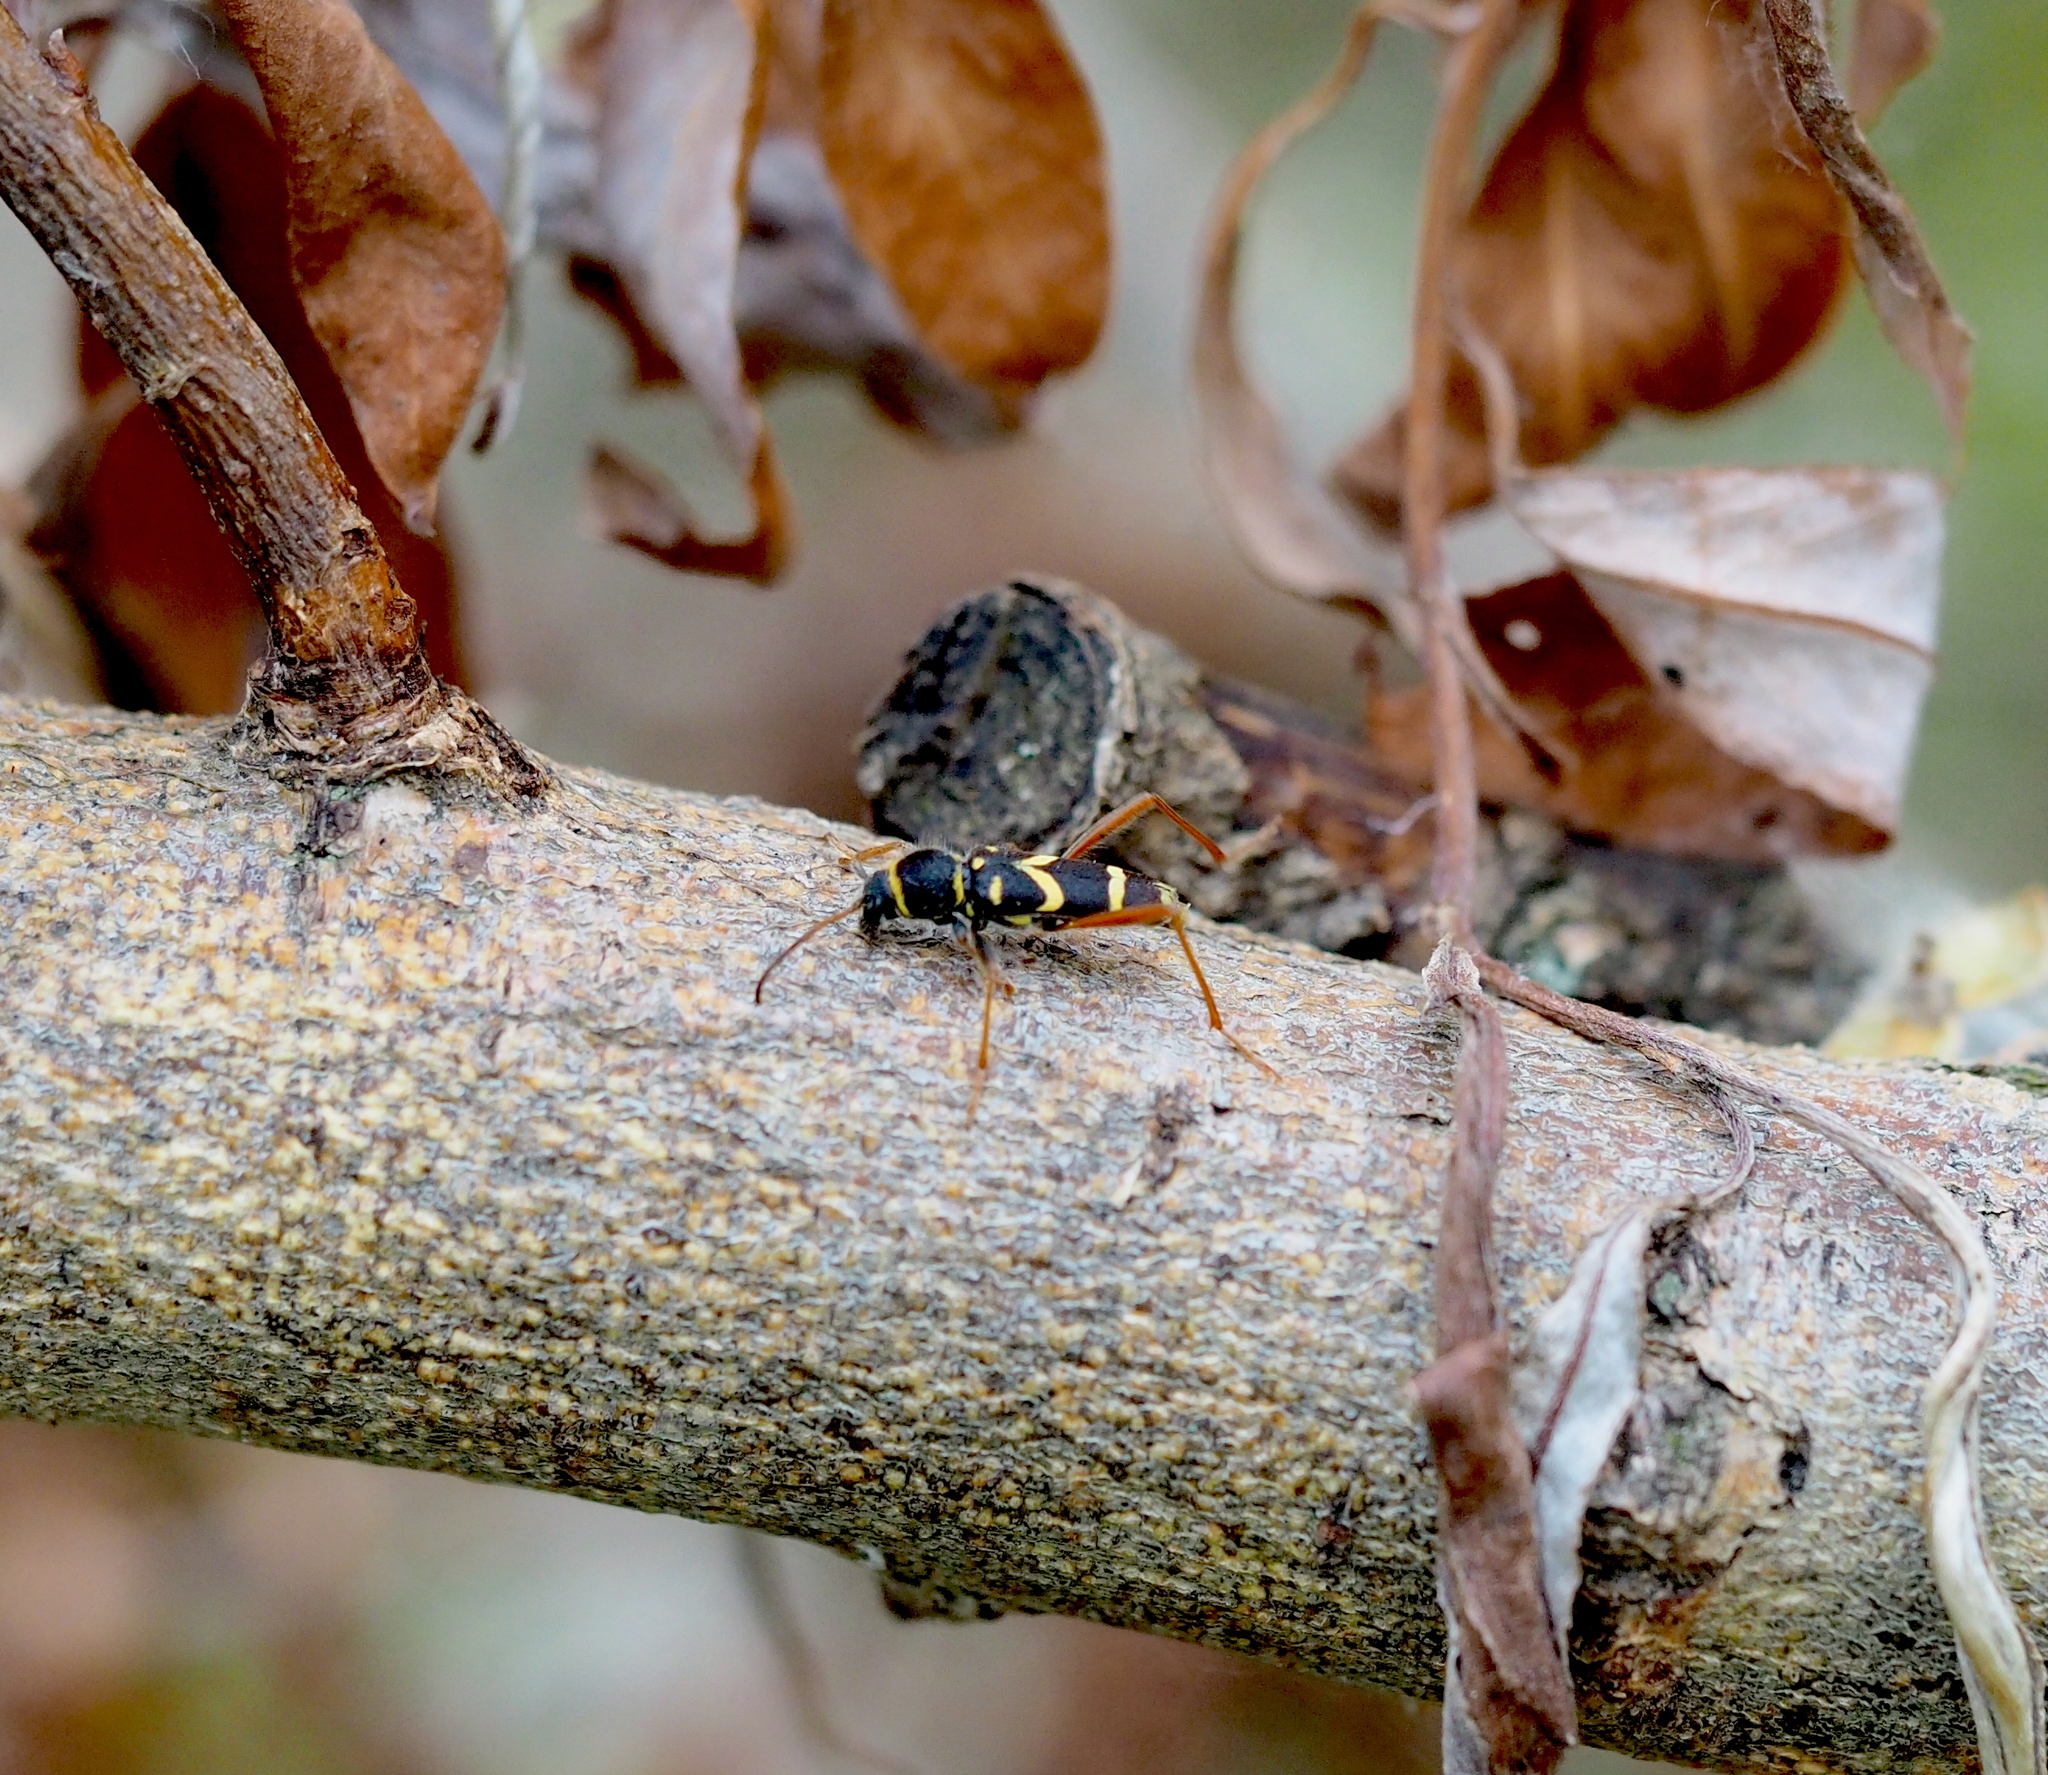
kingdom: Animalia
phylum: Arthropoda
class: Insecta
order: Coleoptera
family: Cerambycidae
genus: Clytus
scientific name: Clytus arietis
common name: Wasp beetle
